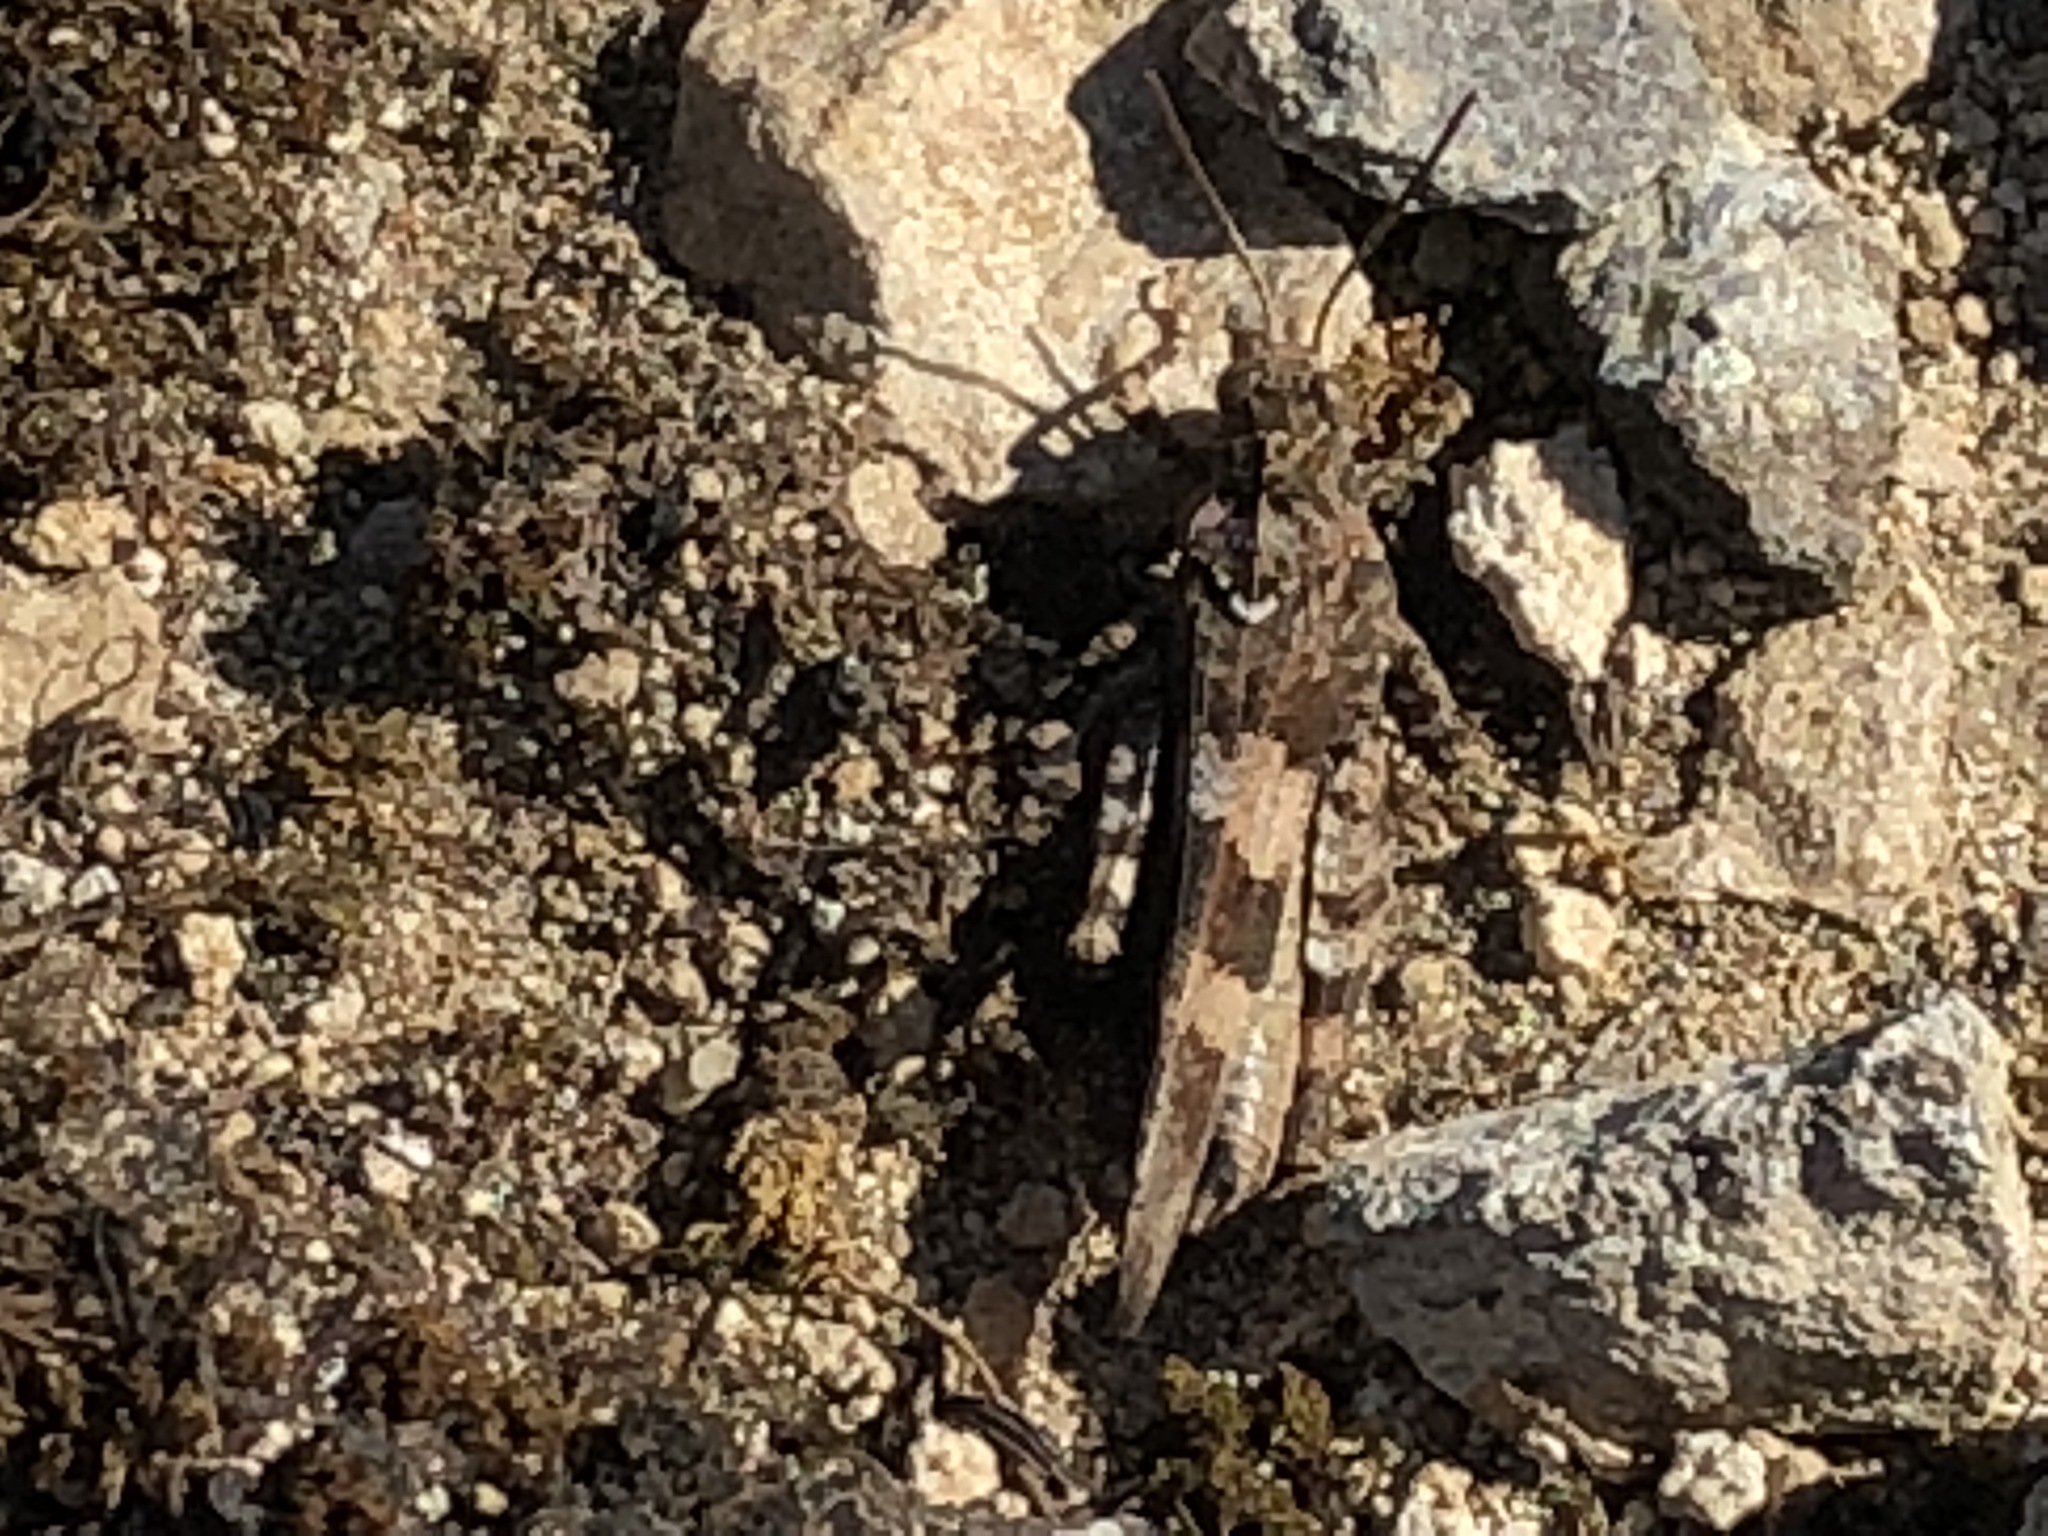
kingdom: Animalia
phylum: Arthropoda
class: Insecta
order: Orthoptera
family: Acrididae
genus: Oedipoda
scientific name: Oedipoda caerulescens
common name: Blue-winged grasshopper
